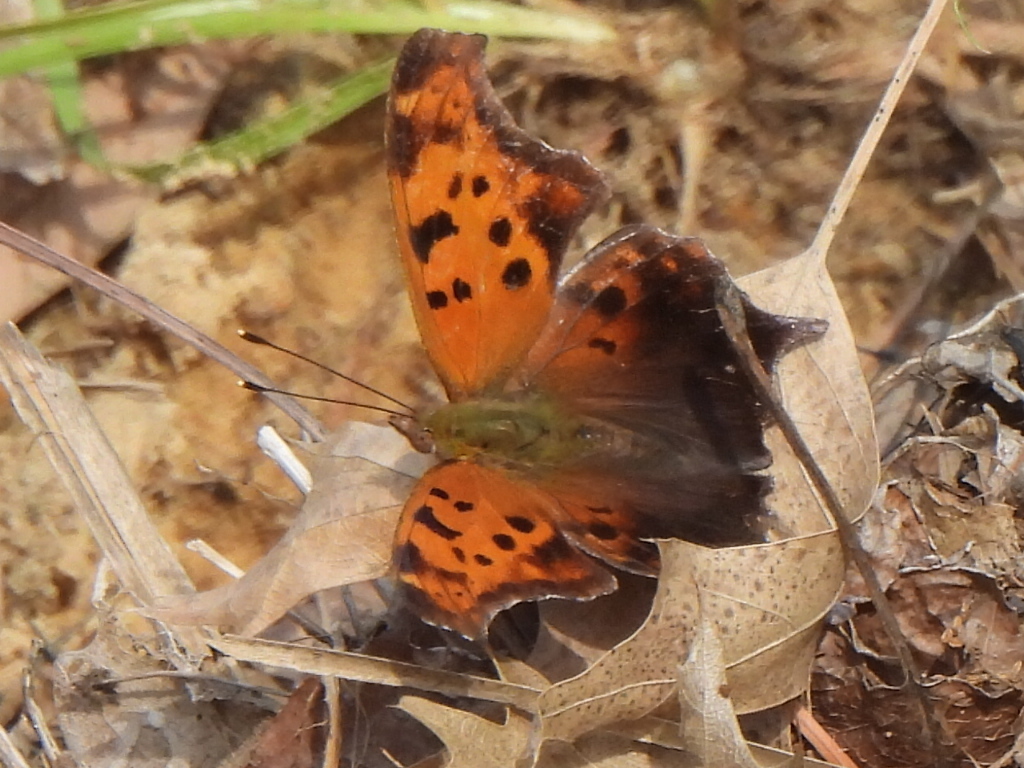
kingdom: Animalia
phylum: Arthropoda
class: Insecta
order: Lepidoptera
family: Nymphalidae
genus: Polygonia
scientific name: Polygonia interrogationis
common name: Question mark
